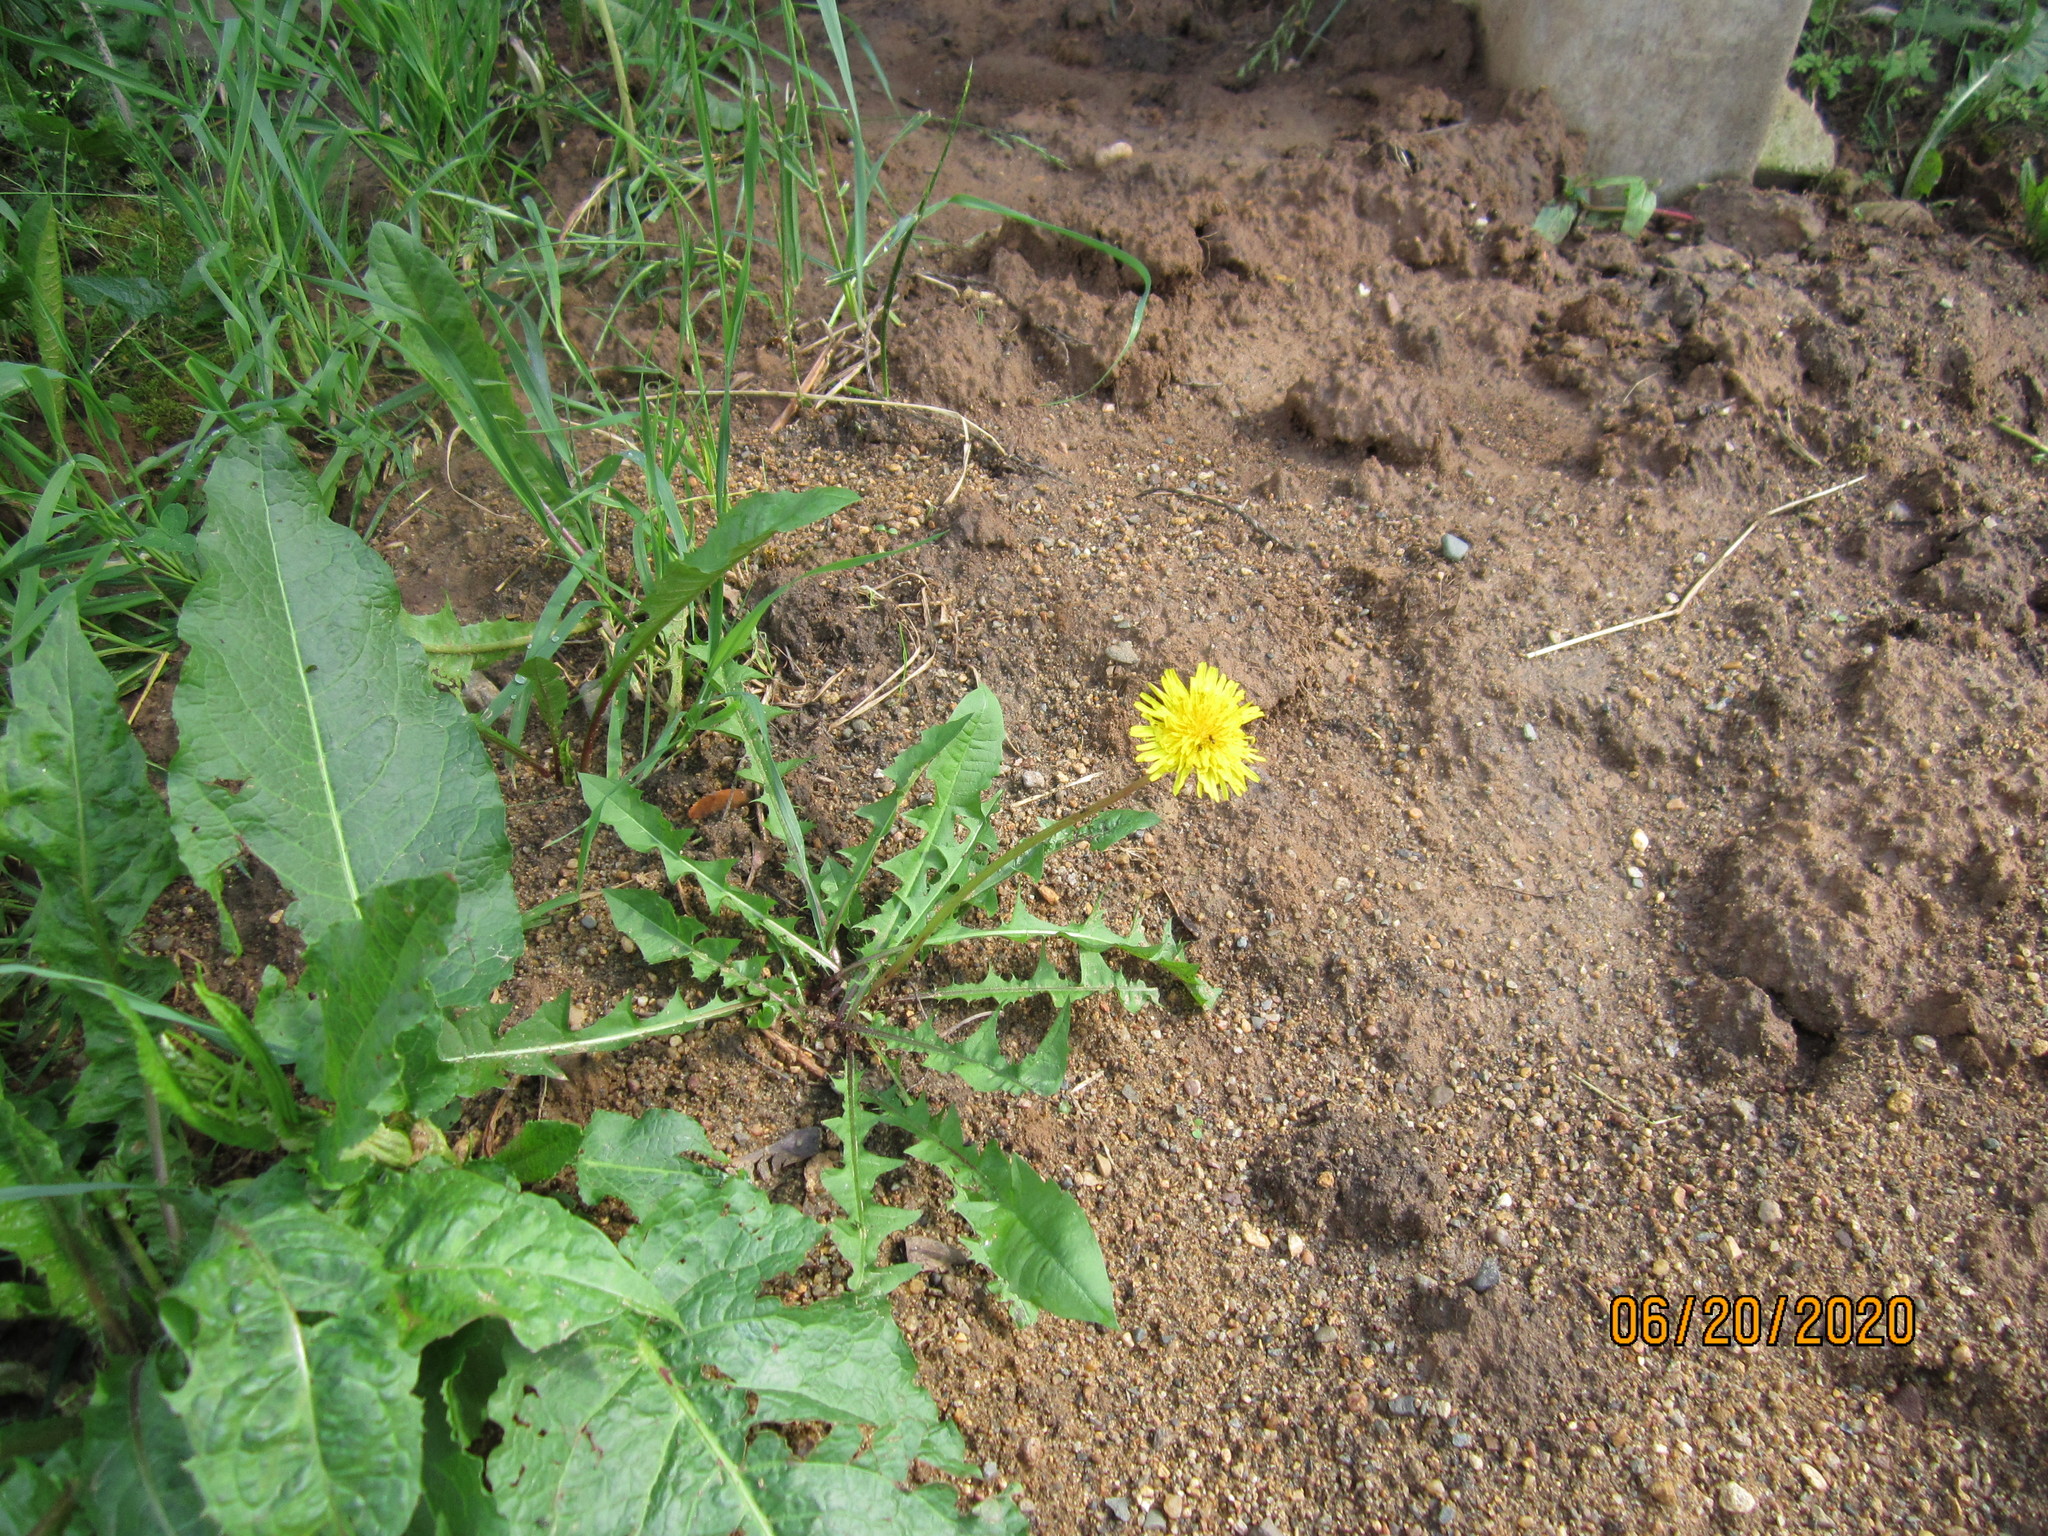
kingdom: Plantae
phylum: Tracheophyta
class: Magnoliopsida
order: Asterales
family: Asteraceae
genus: Taraxacum
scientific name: Taraxacum officinale
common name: Common dandelion
